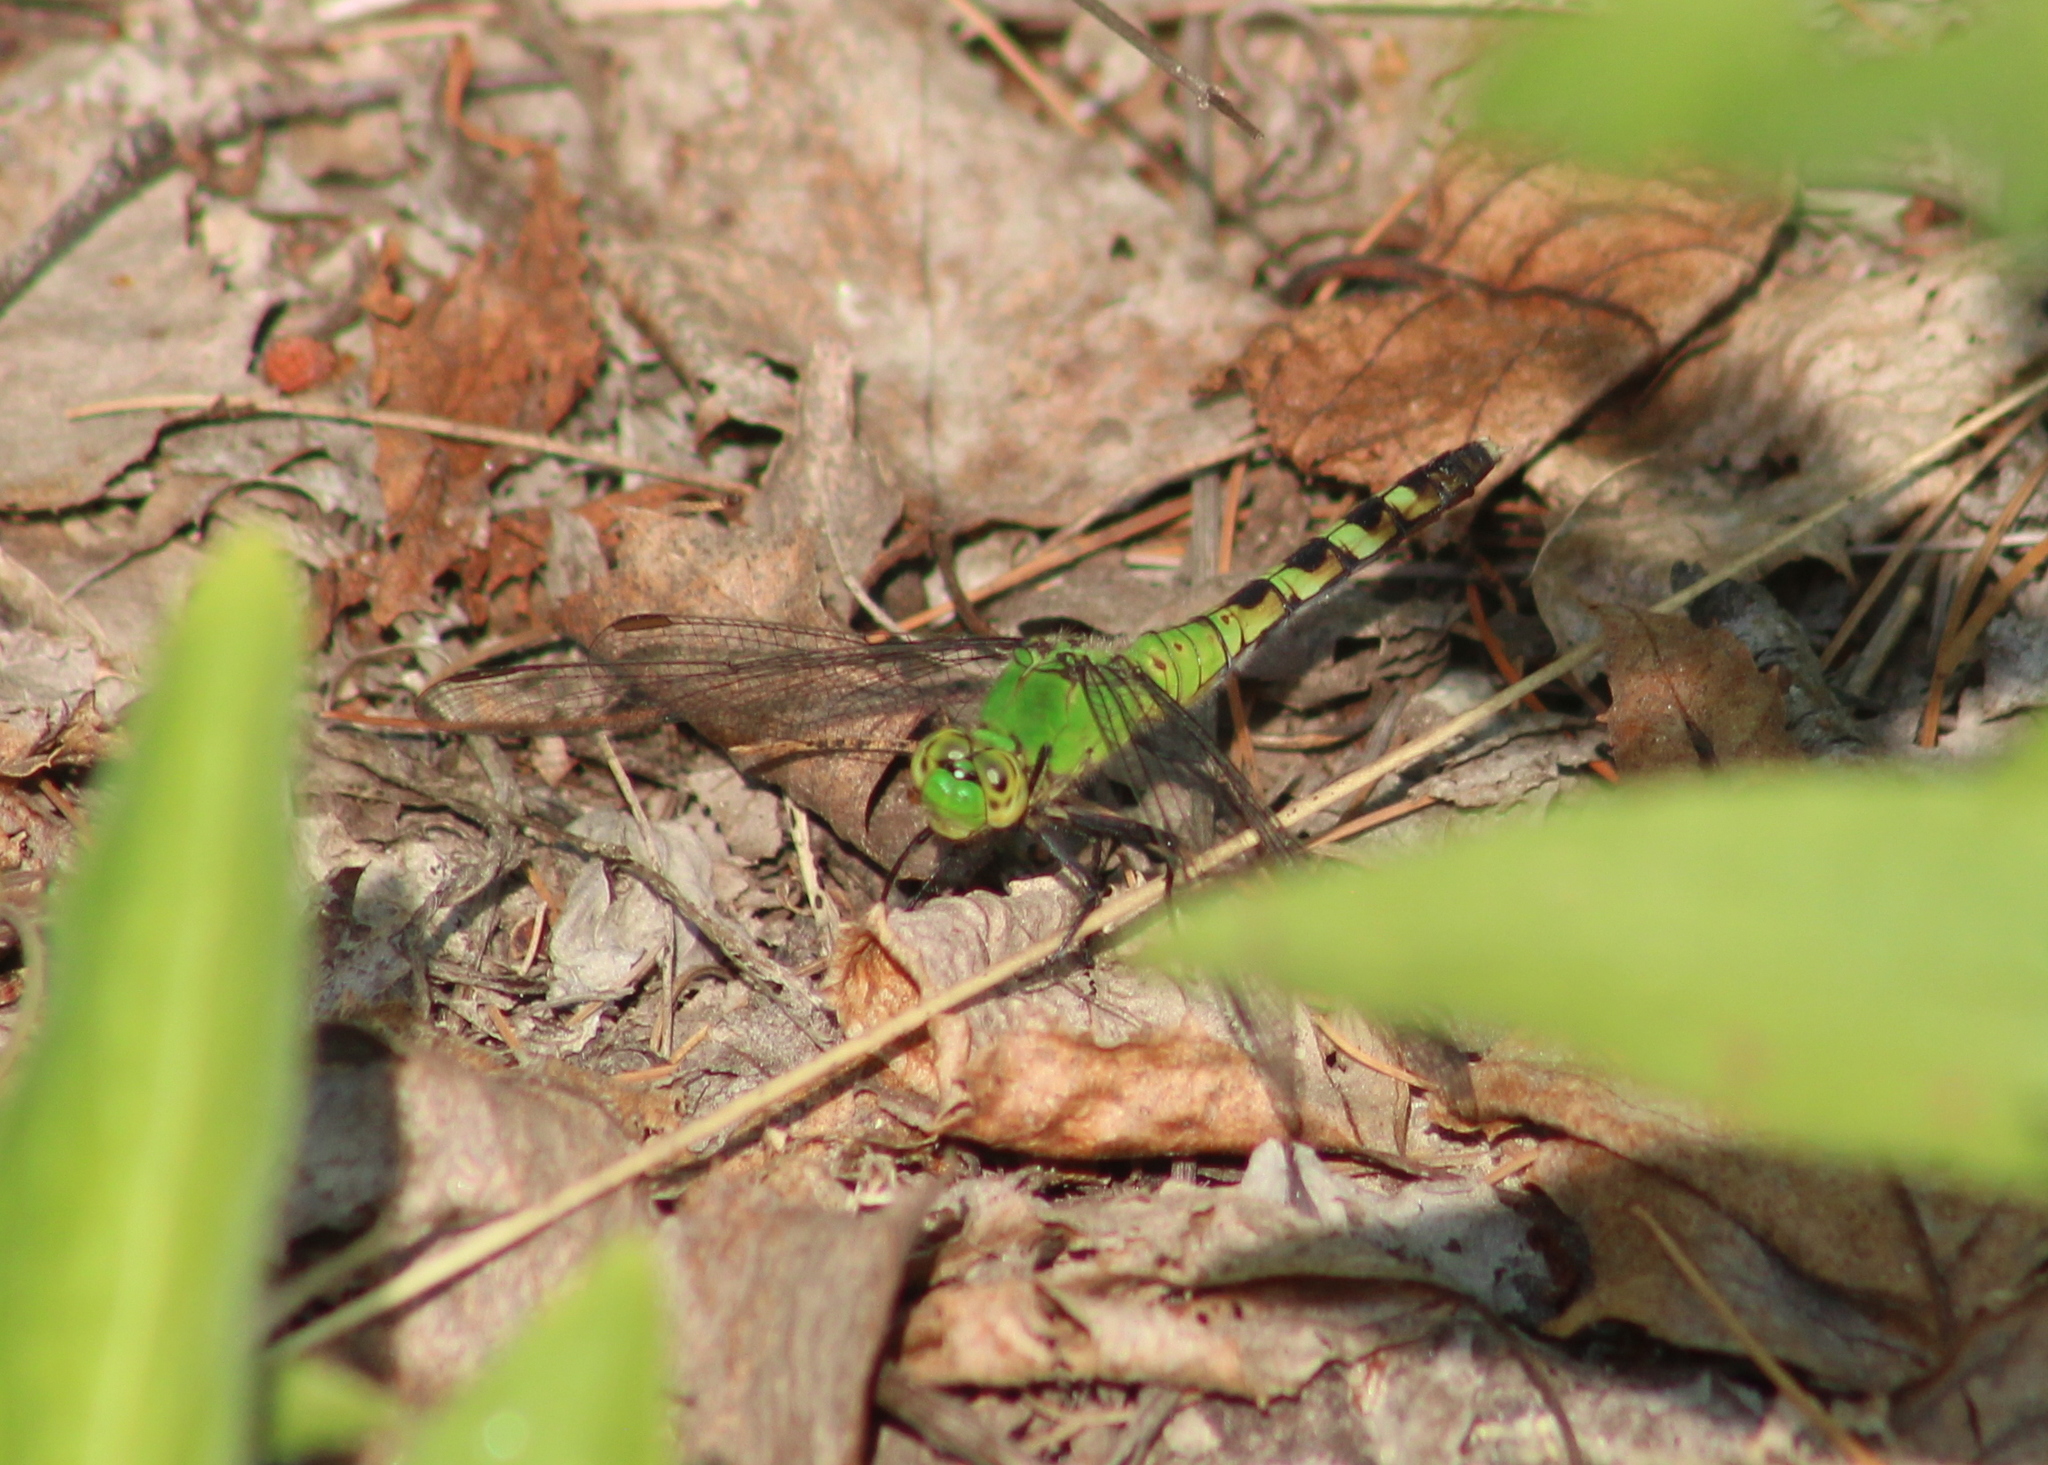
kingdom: Animalia
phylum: Arthropoda
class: Insecta
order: Odonata
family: Libellulidae
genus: Erythemis
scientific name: Erythemis simplicicollis
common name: Eastern pondhawk
